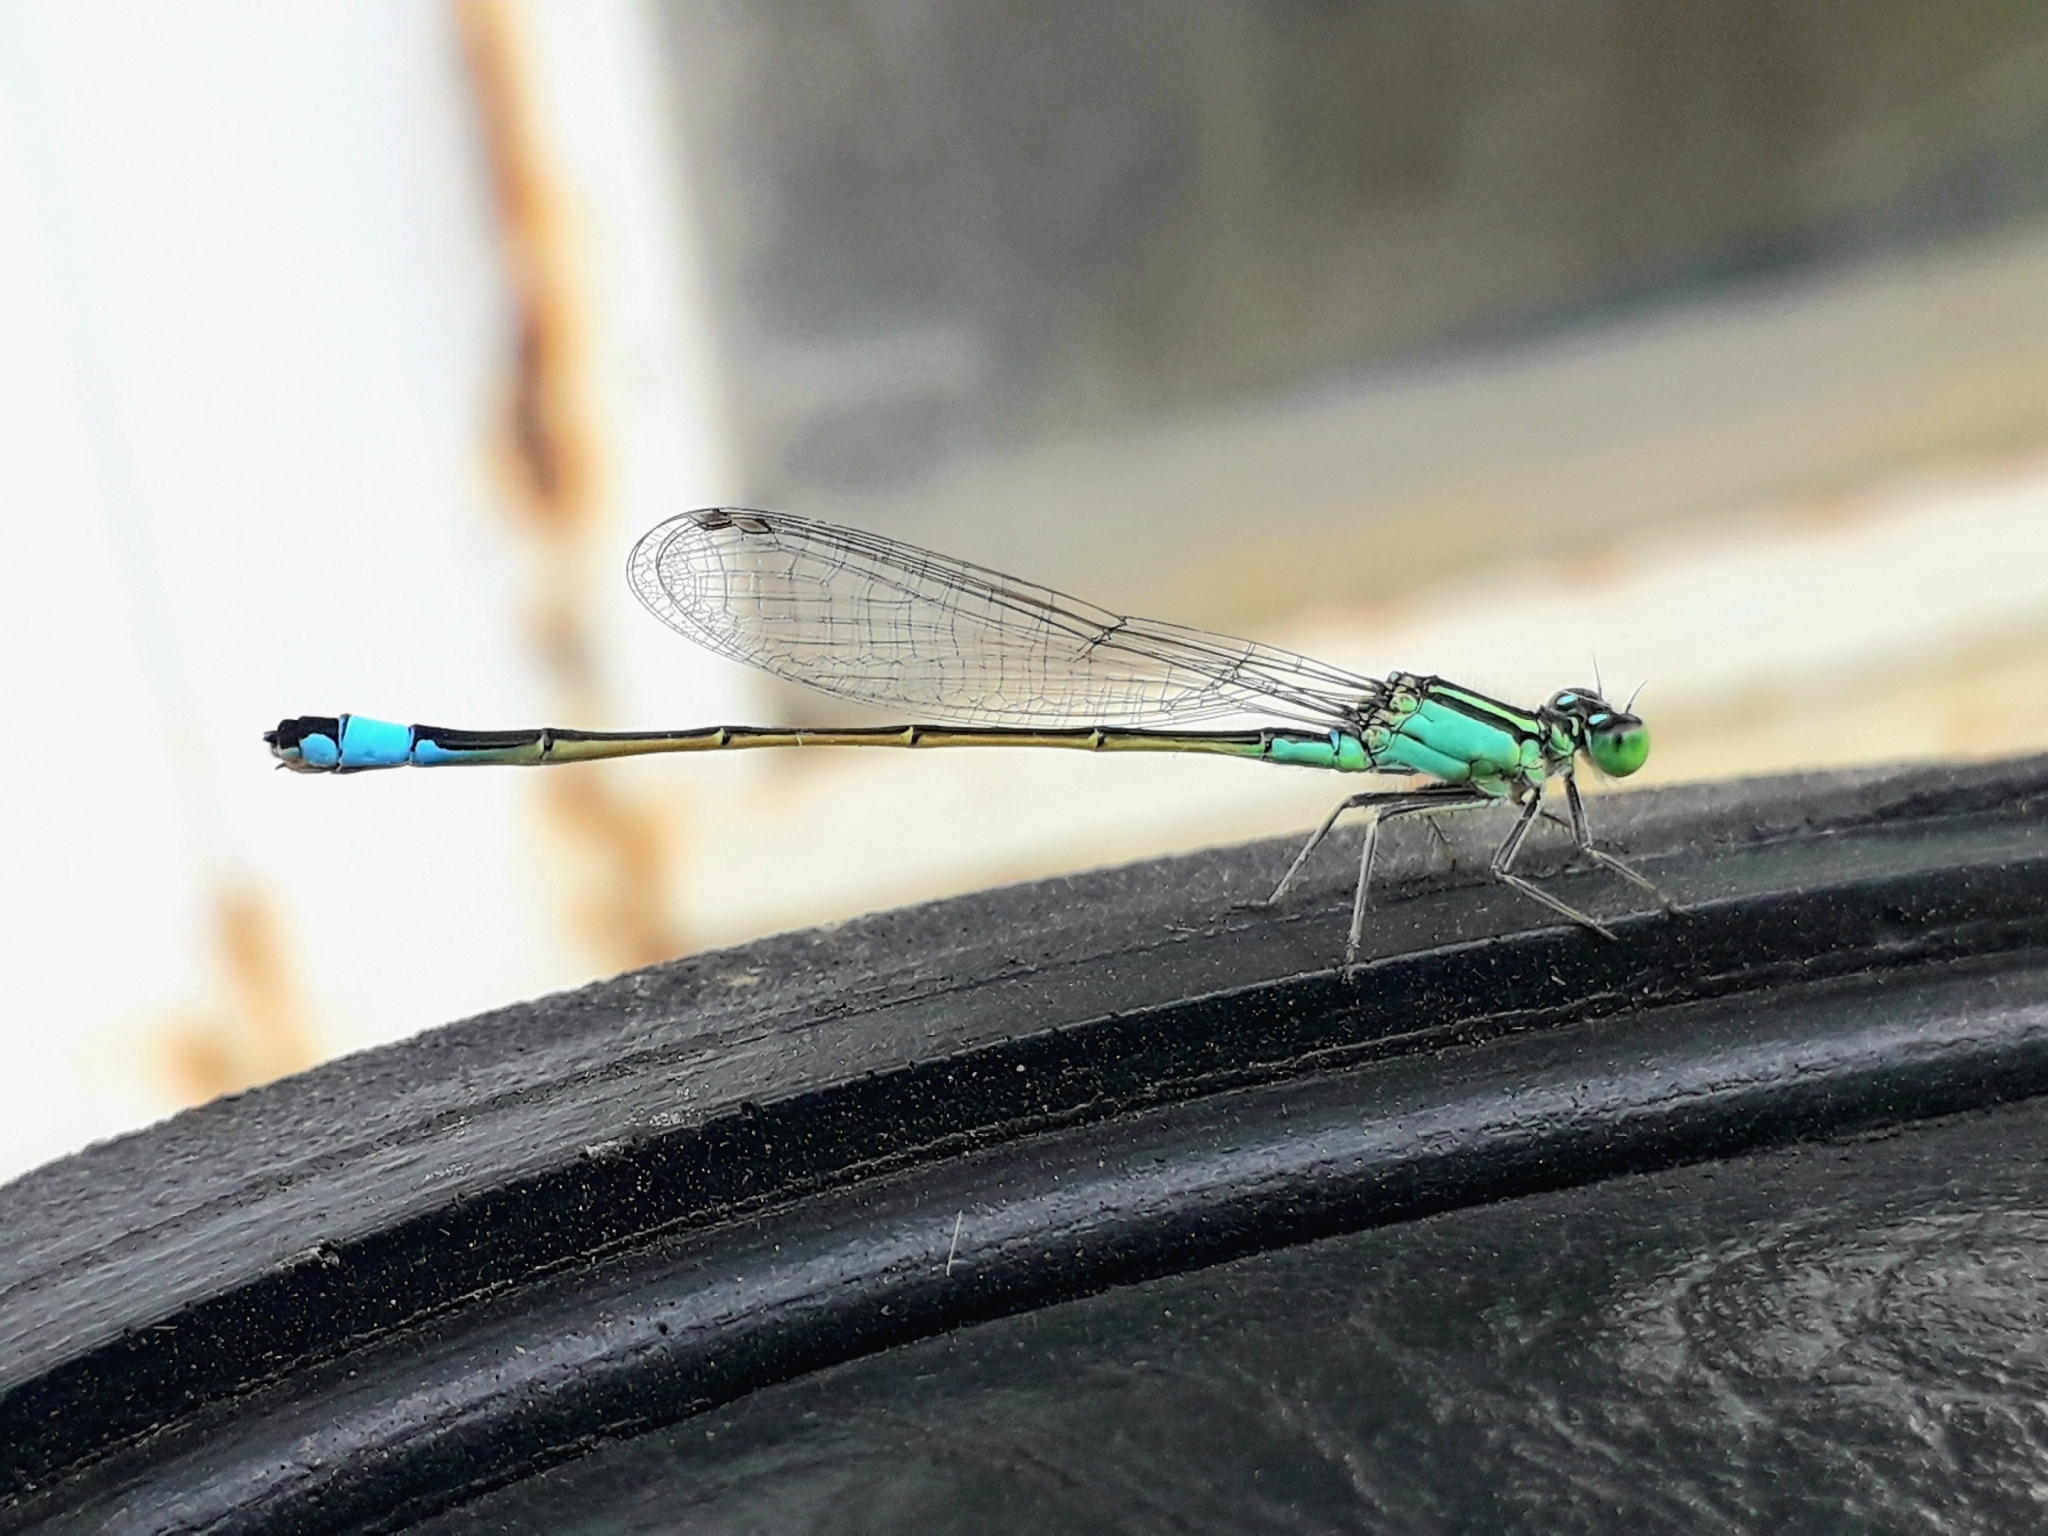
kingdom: Animalia
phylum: Arthropoda
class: Insecta
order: Odonata
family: Coenagrionidae
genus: Ischnura
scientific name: Ischnura elegans
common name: Blue-tailed damselfly
